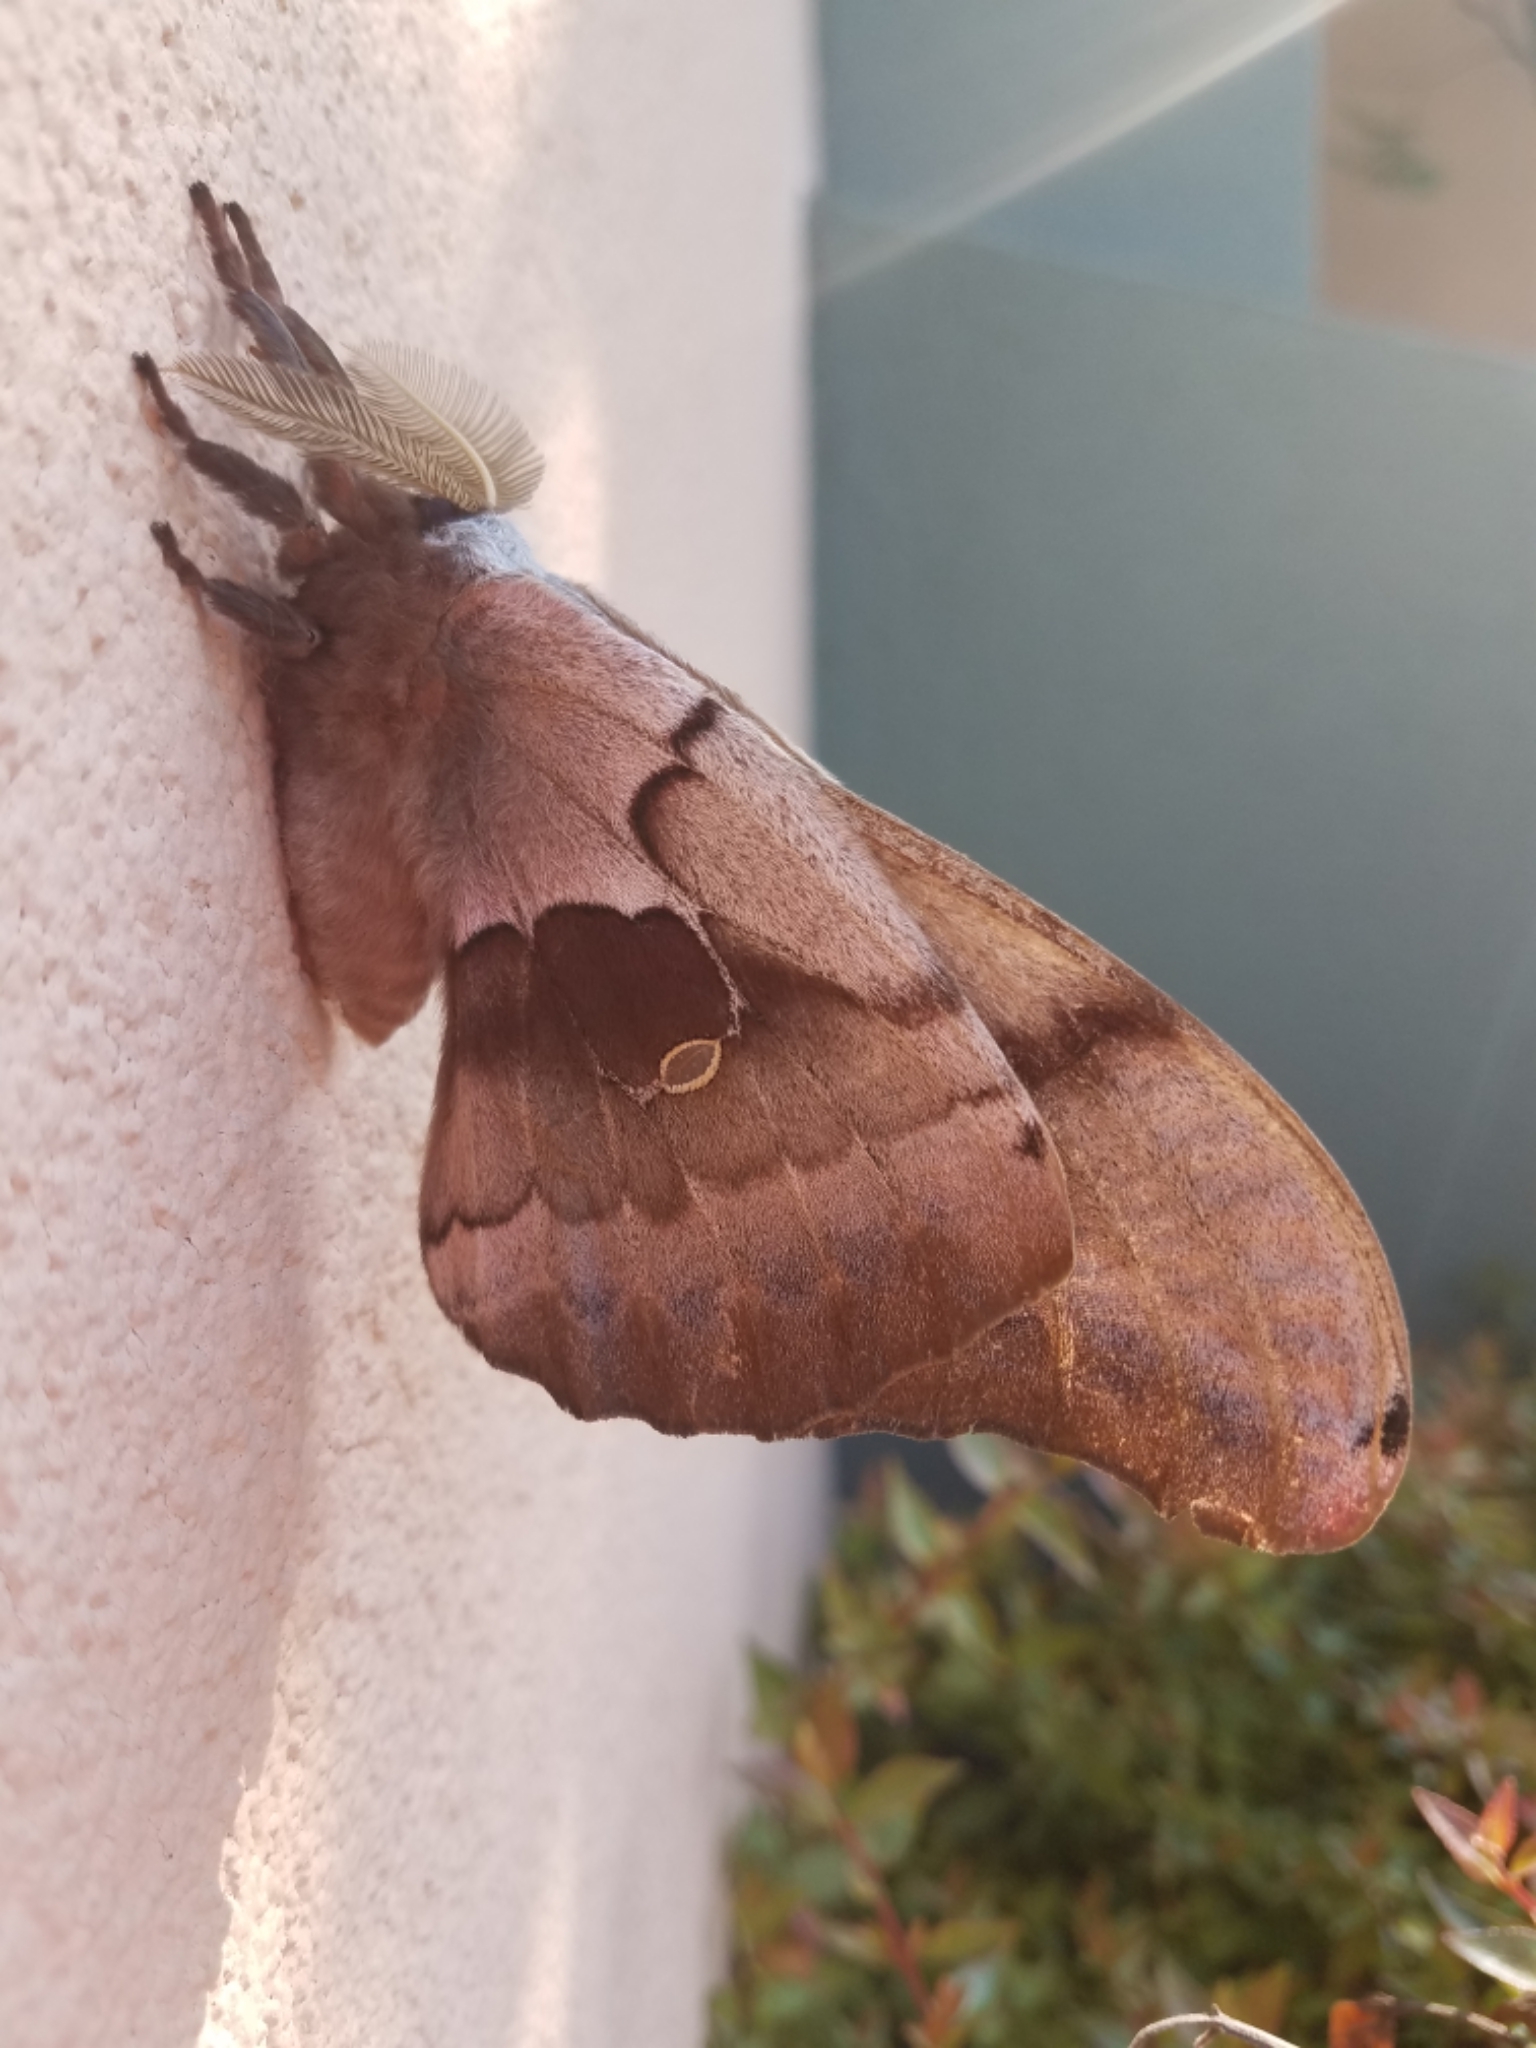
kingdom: Animalia
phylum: Arthropoda
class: Insecta
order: Lepidoptera
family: Saturniidae
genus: Antheraea
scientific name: Antheraea polyphemus
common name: Polyphemus moth
